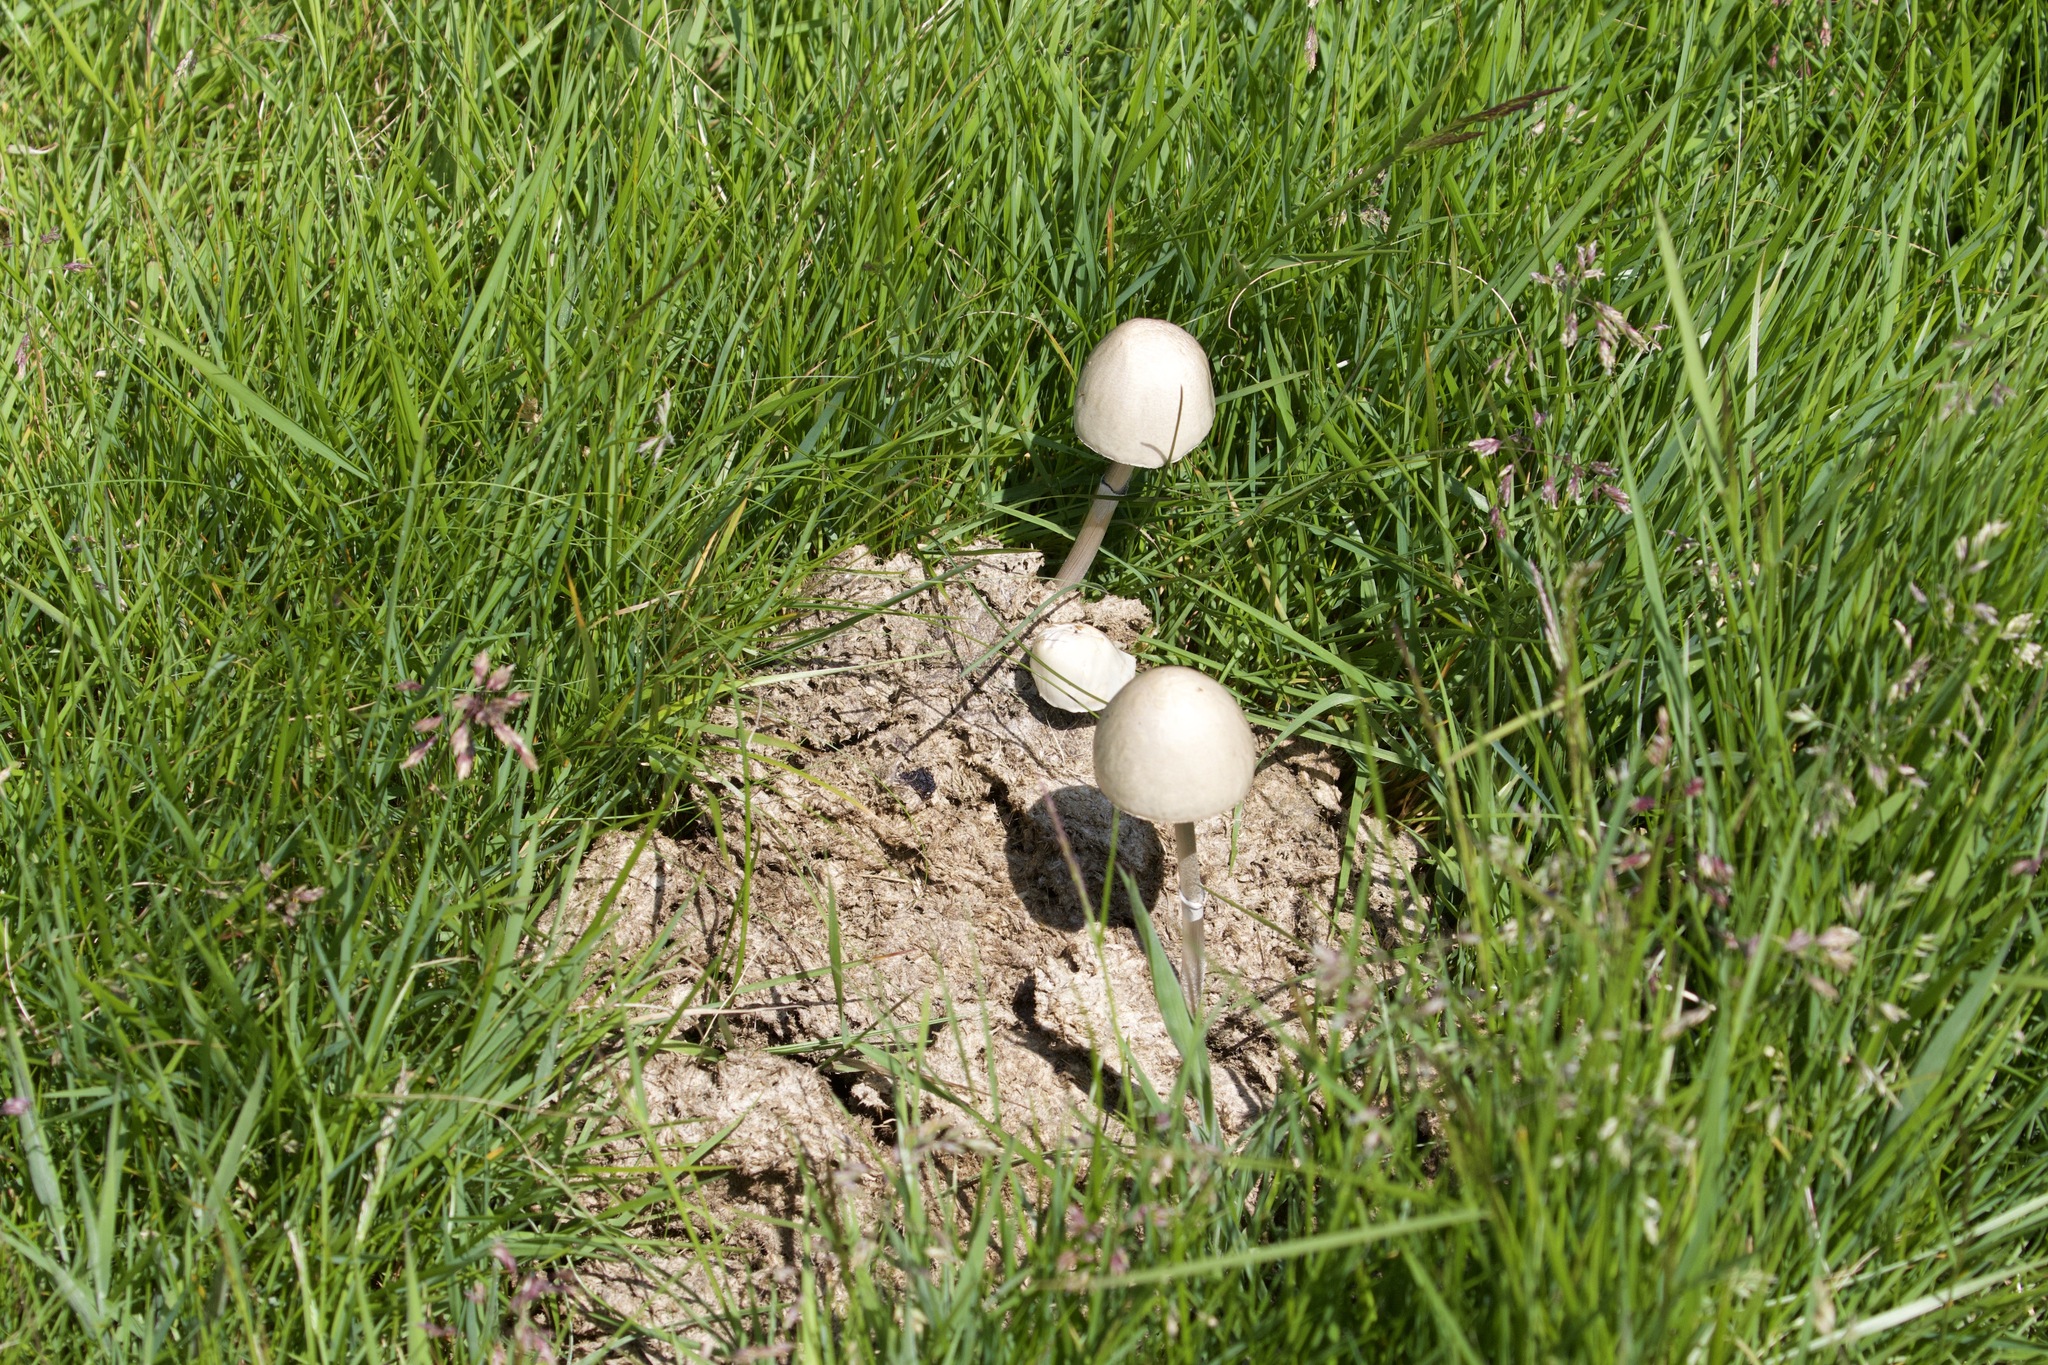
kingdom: Fungi
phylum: Basidiomycota
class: Agaricomycetes
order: Agaricales
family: Bolbitiaceae
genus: Panaeolus
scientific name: Panaeolus semiovatus
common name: Shiny mottlegill
